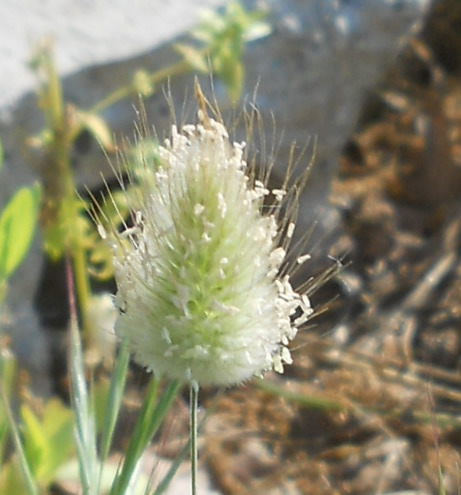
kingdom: Plantae
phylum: Tracheophyta
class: Liliopsida
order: Poales
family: Poaceae
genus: Lagurus
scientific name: Lagurus ovatus
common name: Hare's-tail
